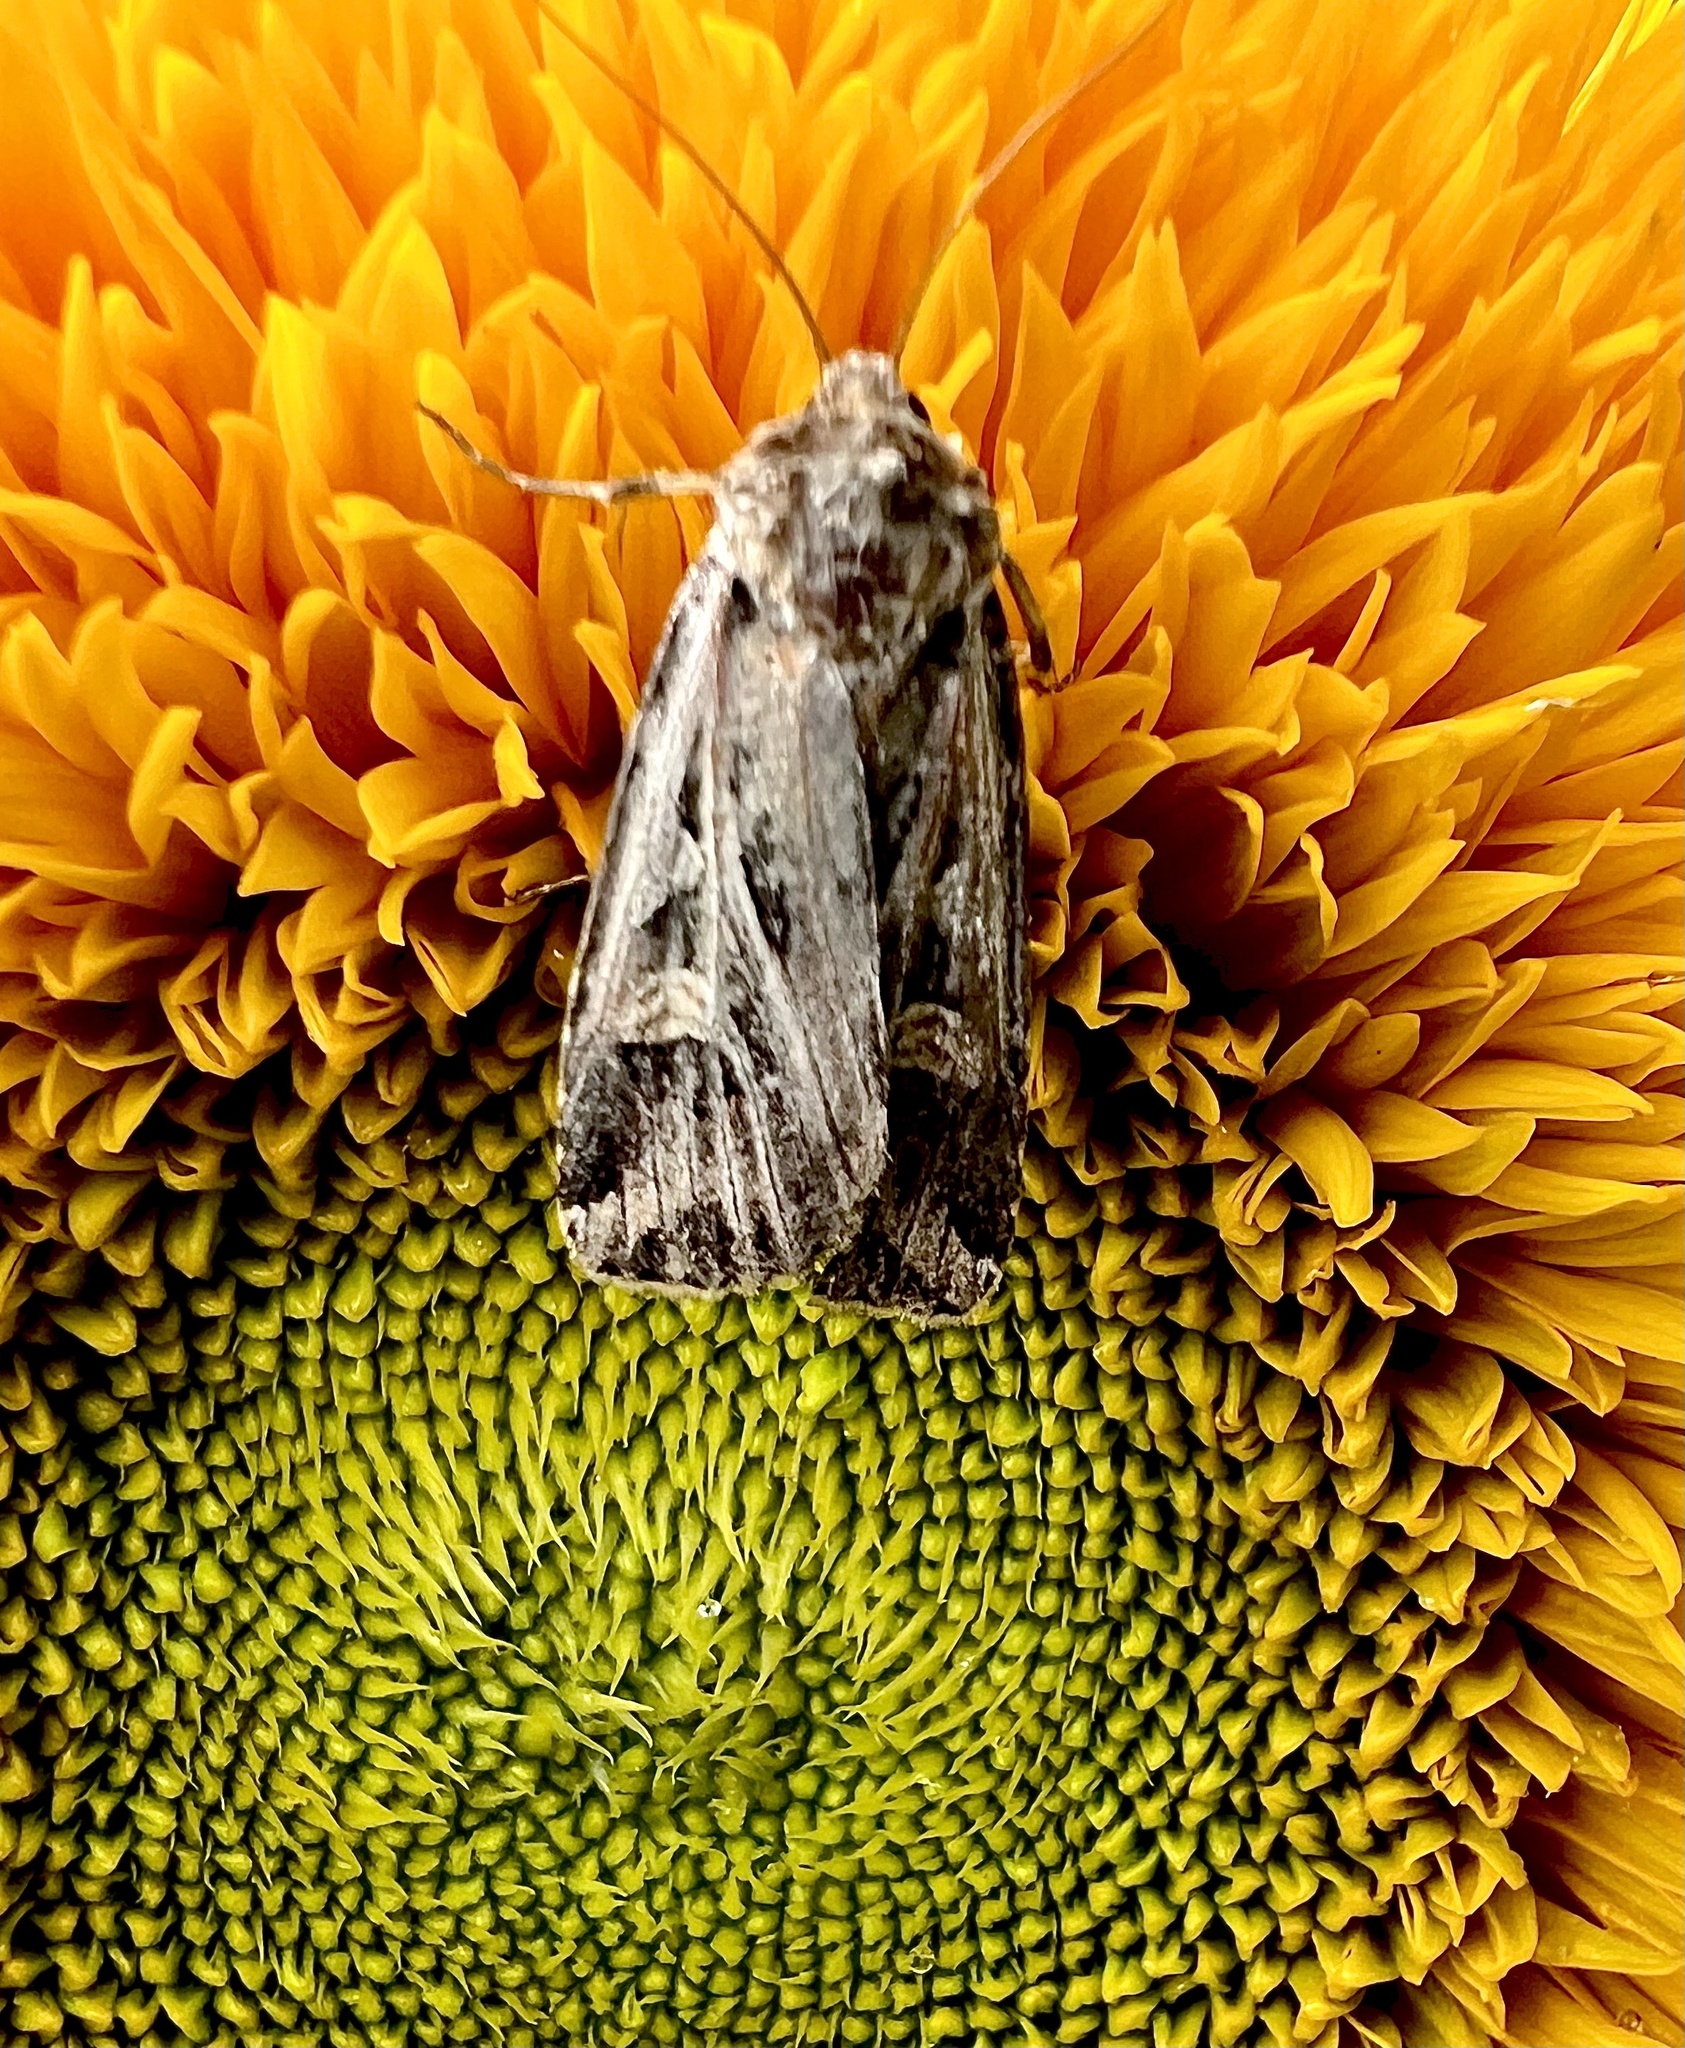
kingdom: Animalia
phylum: Arthropoda
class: Insecta
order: Lepidoptera
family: Noctuidae
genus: Feltia
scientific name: Feltia jaculifera
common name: Dingy cutworm moth
